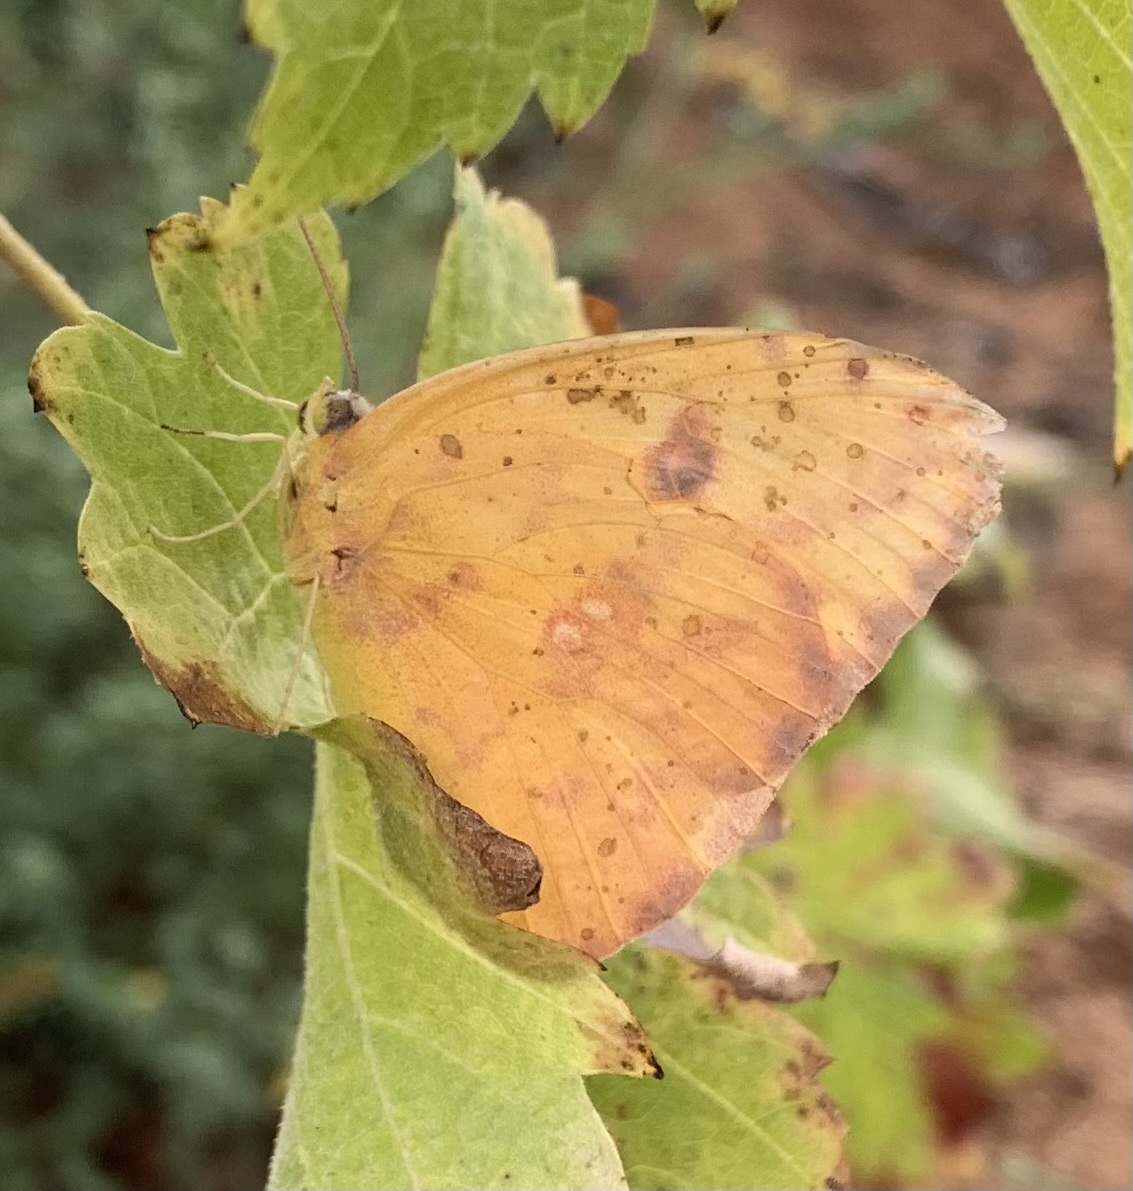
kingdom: Animalia
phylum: Arthropoda
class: Insecta
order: Lepidoptera
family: Pieridae
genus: Phoebis
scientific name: Phoebis marcellina
